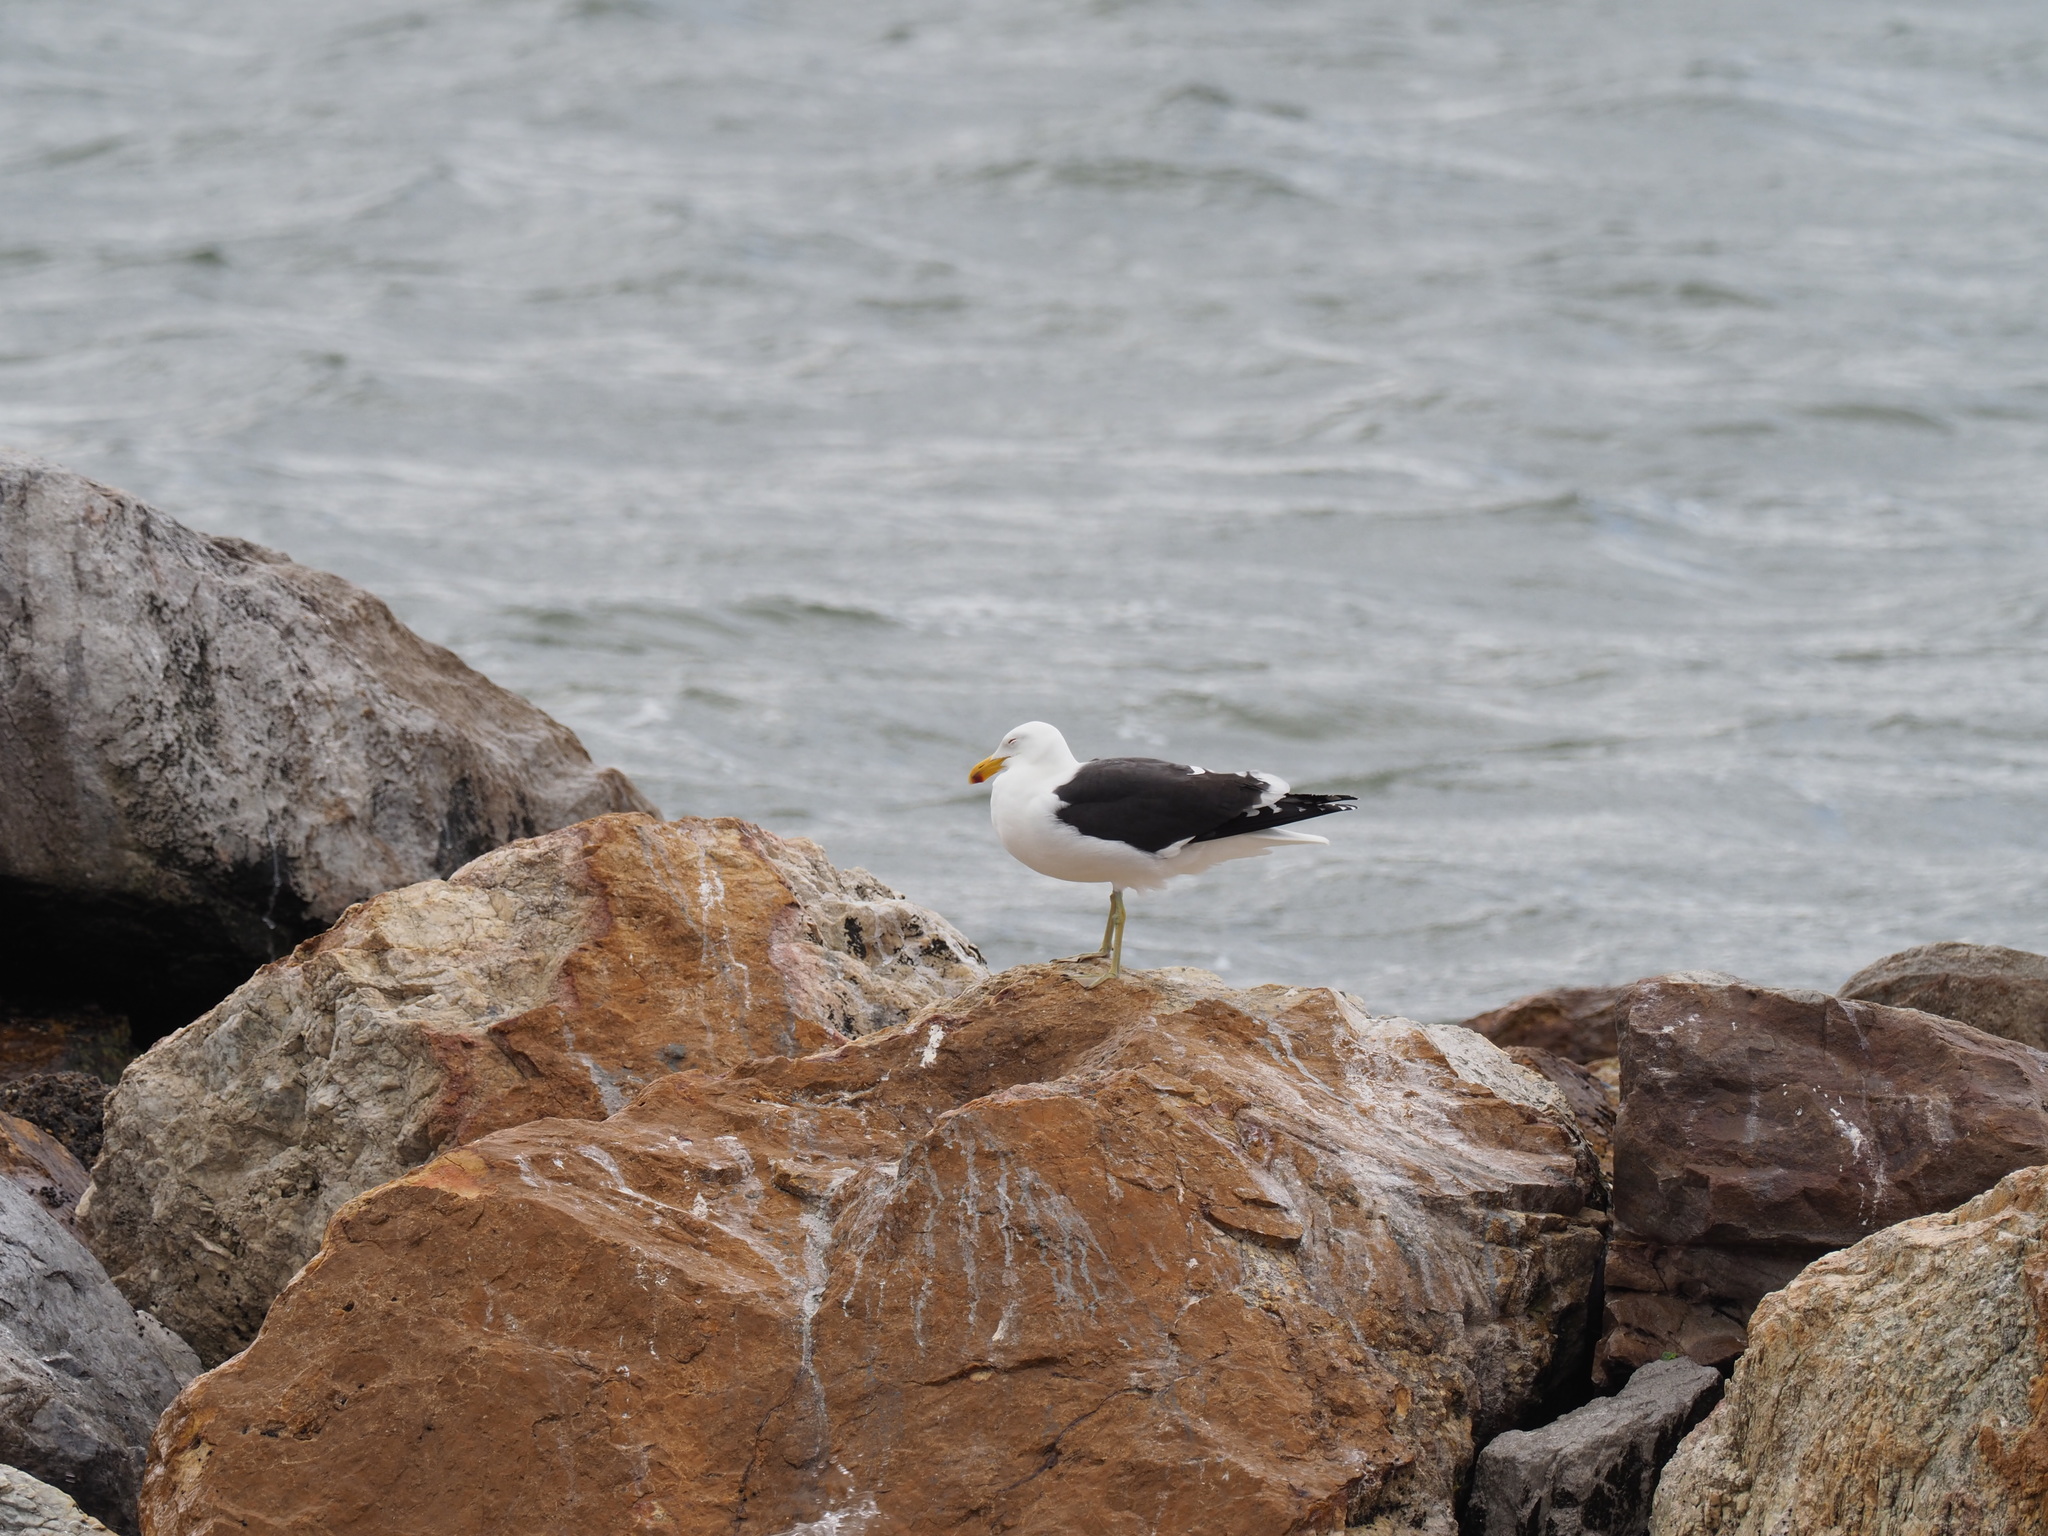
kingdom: Animalia
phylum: Chordata
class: Aves
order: Charadriiformes
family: Laridae
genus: Larus
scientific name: Larus dominicanus
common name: Kelp gull
